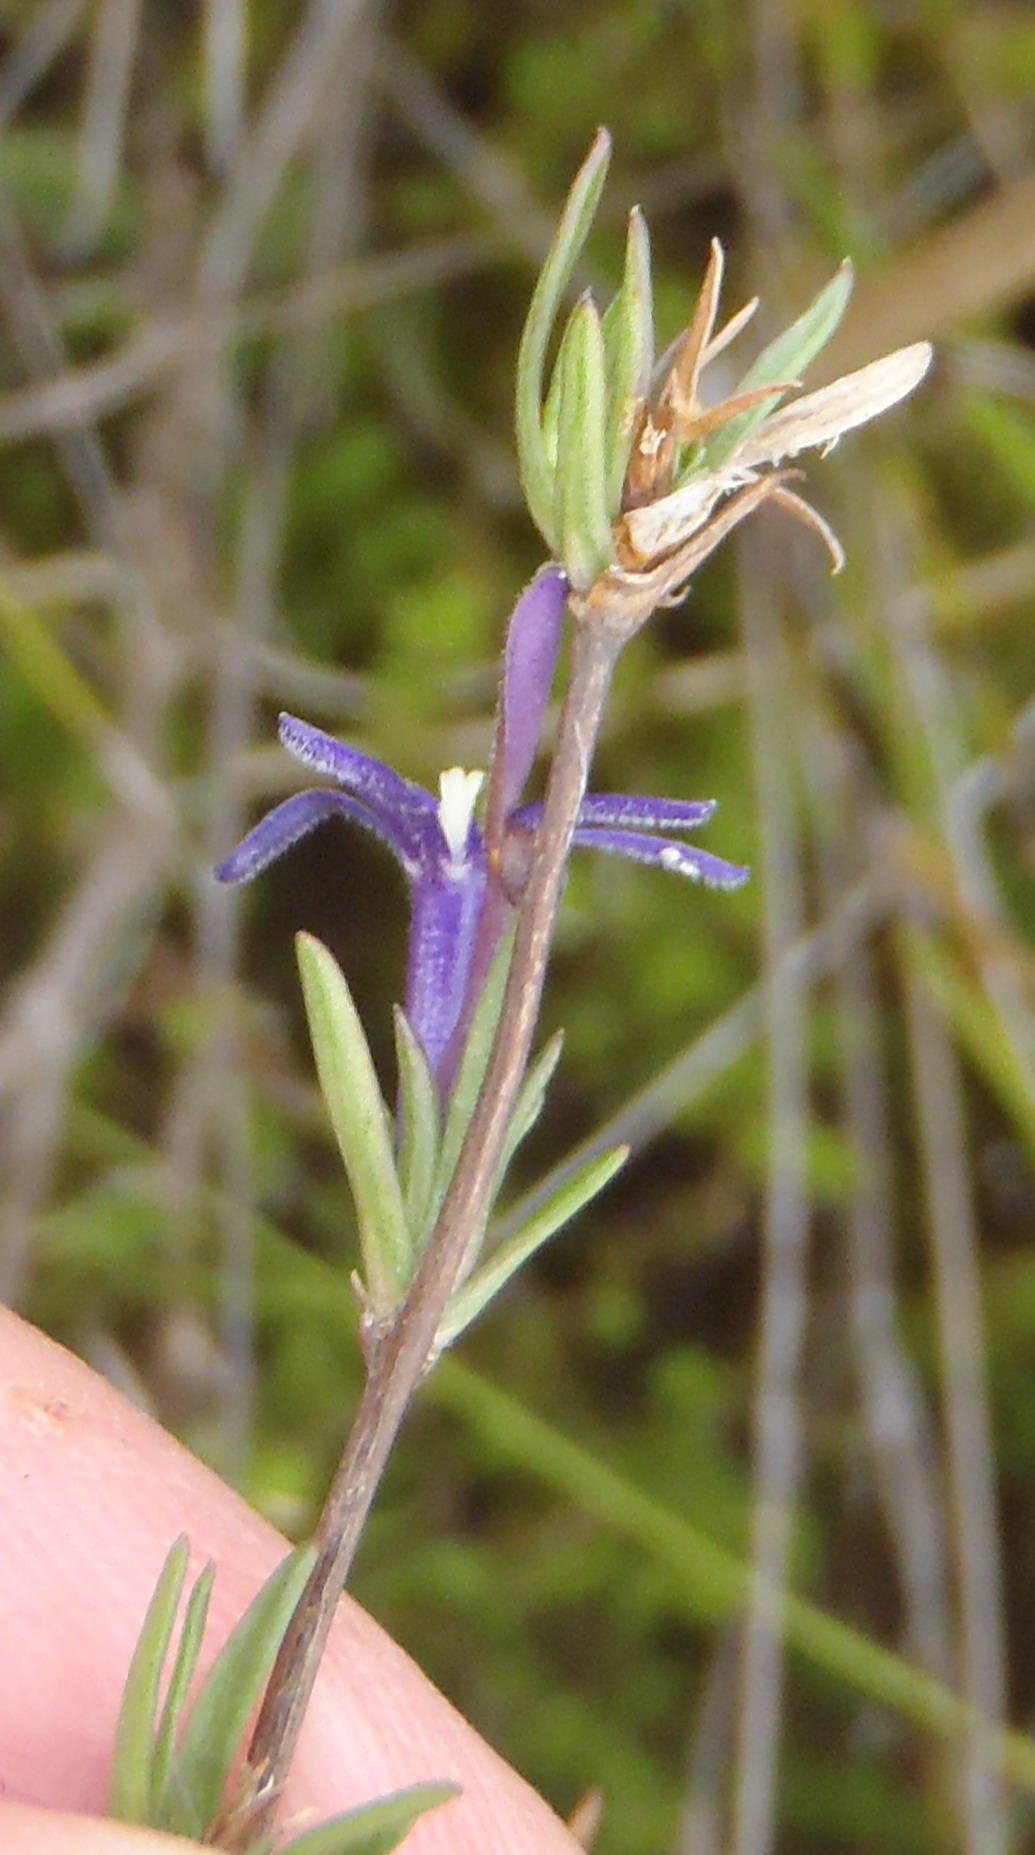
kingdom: Plantae
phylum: Tracheophyta
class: Magnoliopsida
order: Asterales
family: Campanulaceae
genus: Theilera
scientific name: Theilera guthriei
